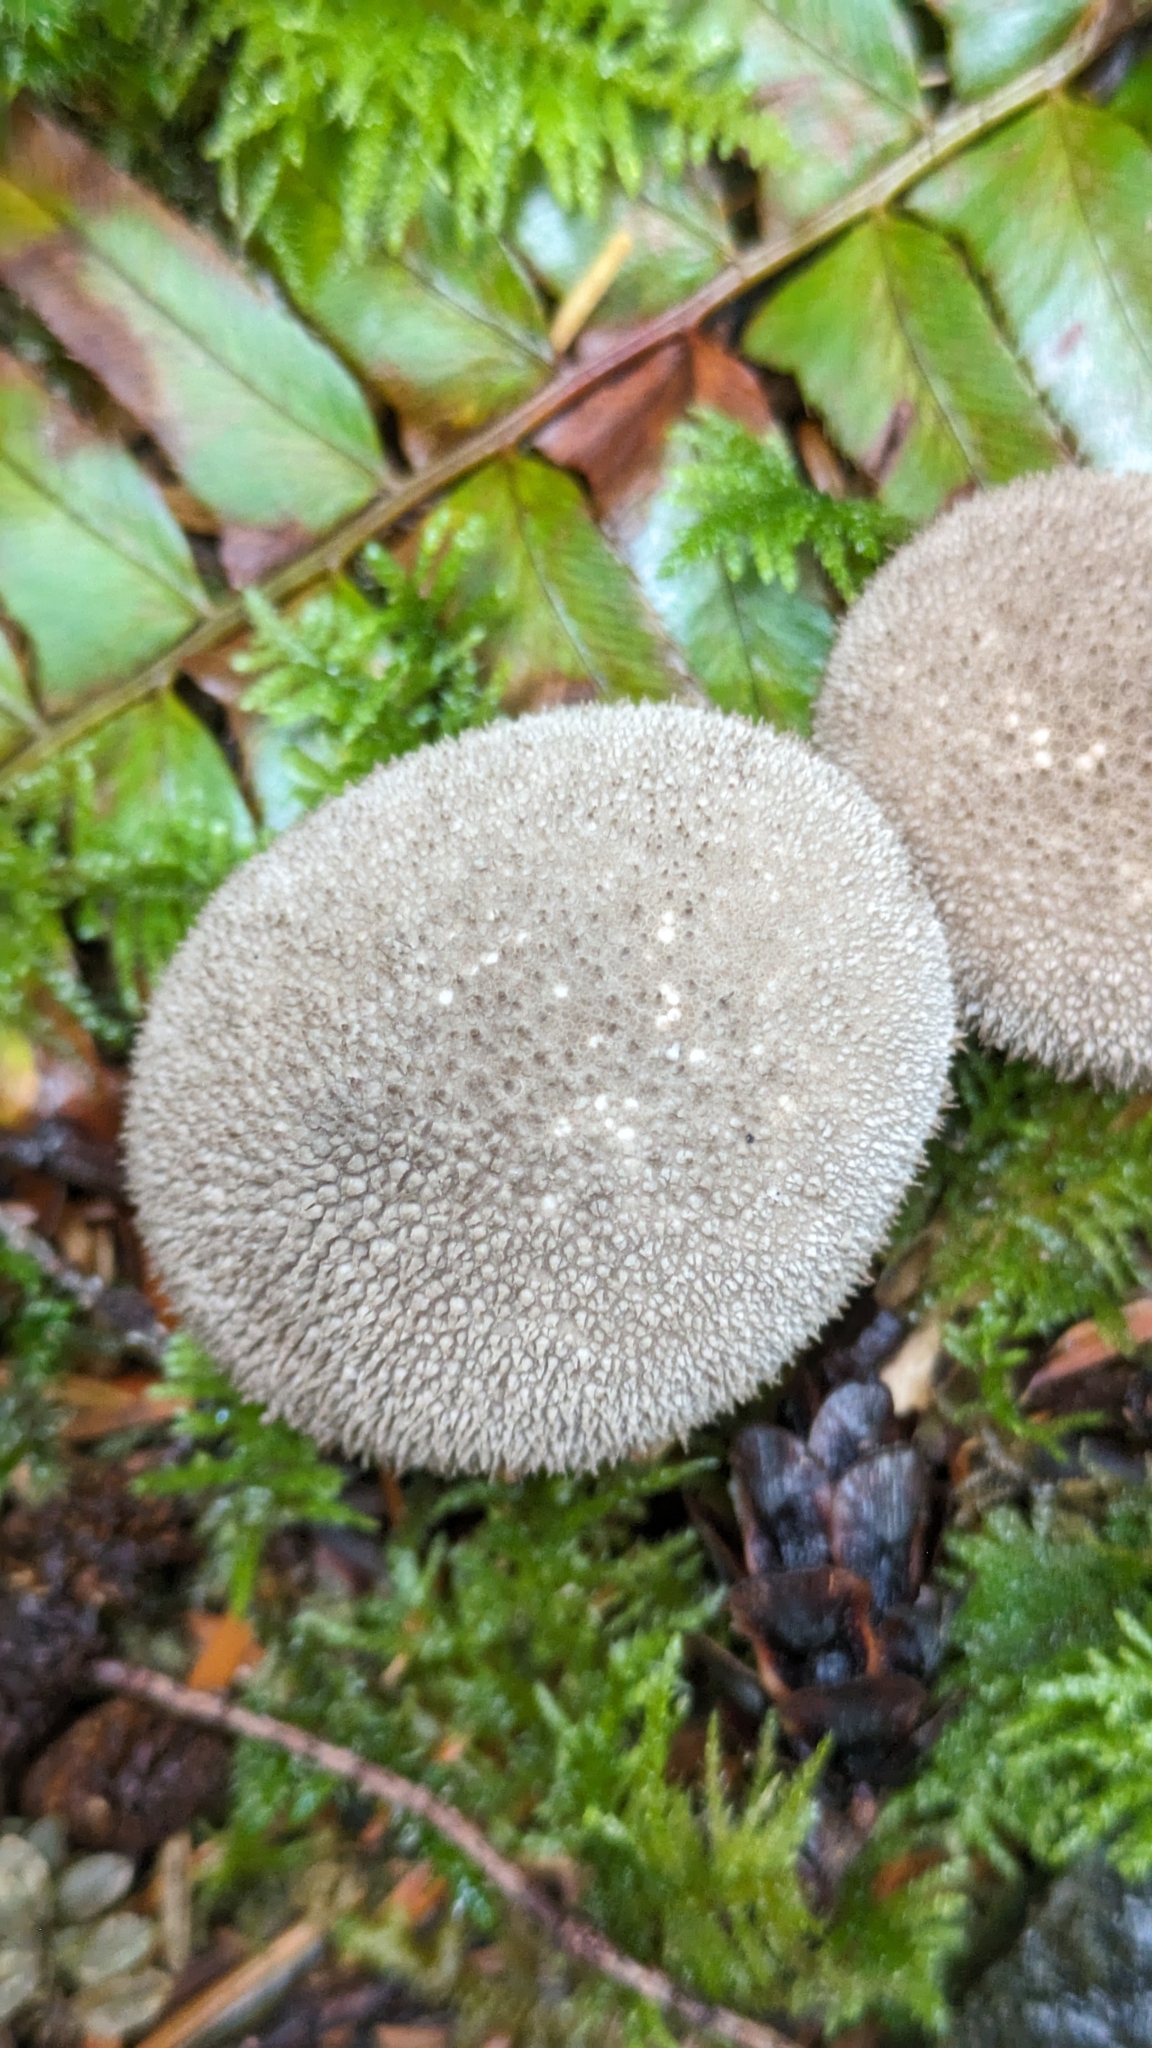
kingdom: Fungi
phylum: Basidiomycota
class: Agaricomycetes
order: Agaricales
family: Lycoperdaceae
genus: Lycoperdon
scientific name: Lycoperdon perlatum
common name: Common puffball
